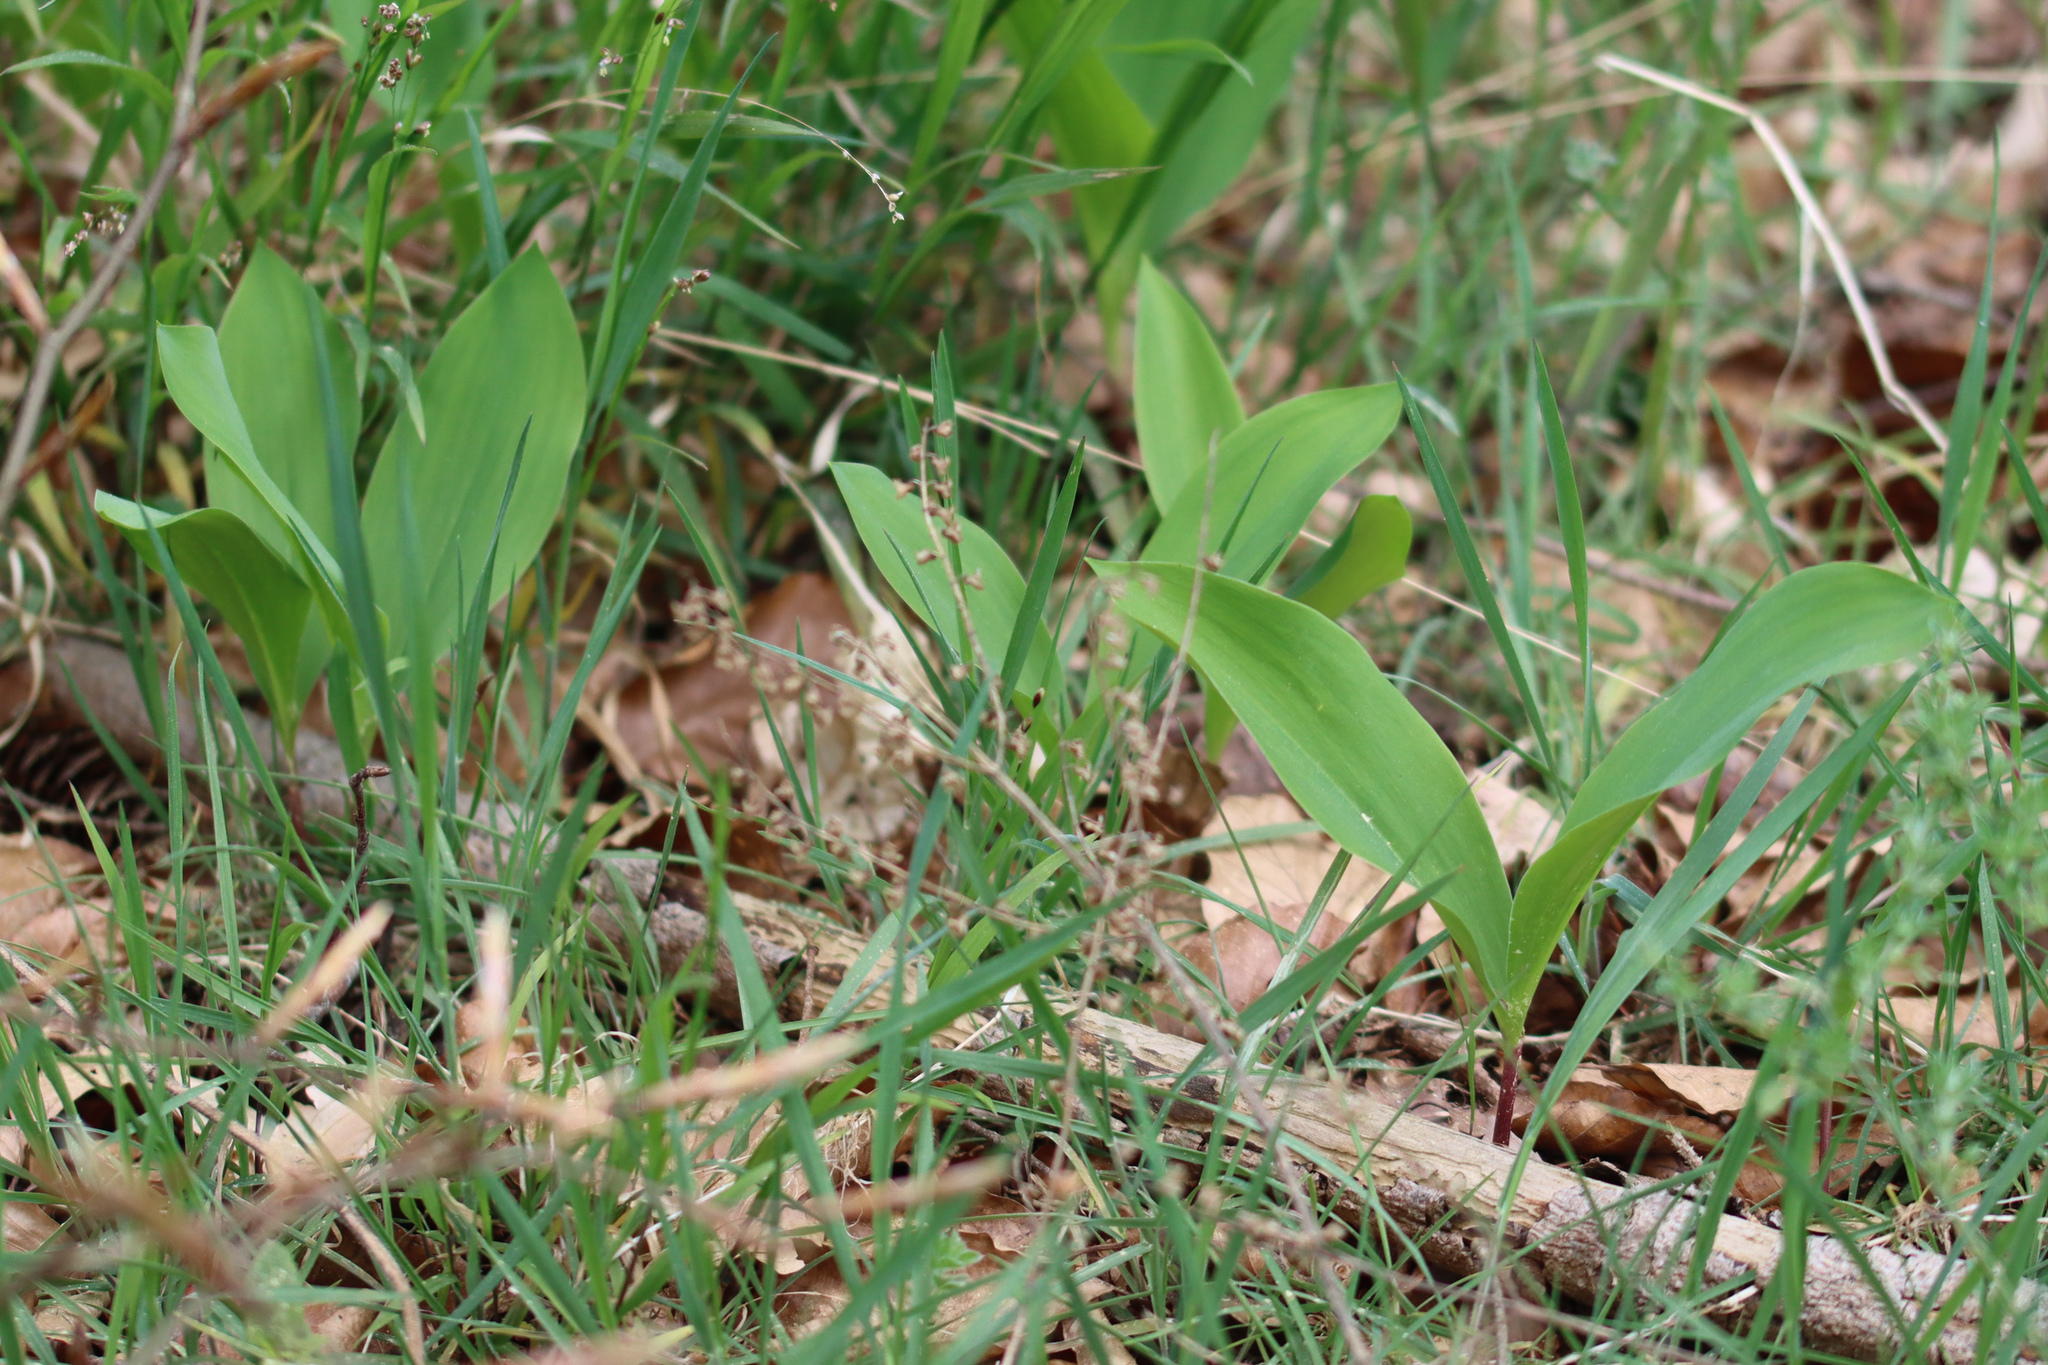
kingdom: Plantae
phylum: Tracheophyta
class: Liliopsida
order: Asparagales
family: Asparagaceae
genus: Convallaria
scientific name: Convallaria majalis
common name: Lily-of-the-valley
